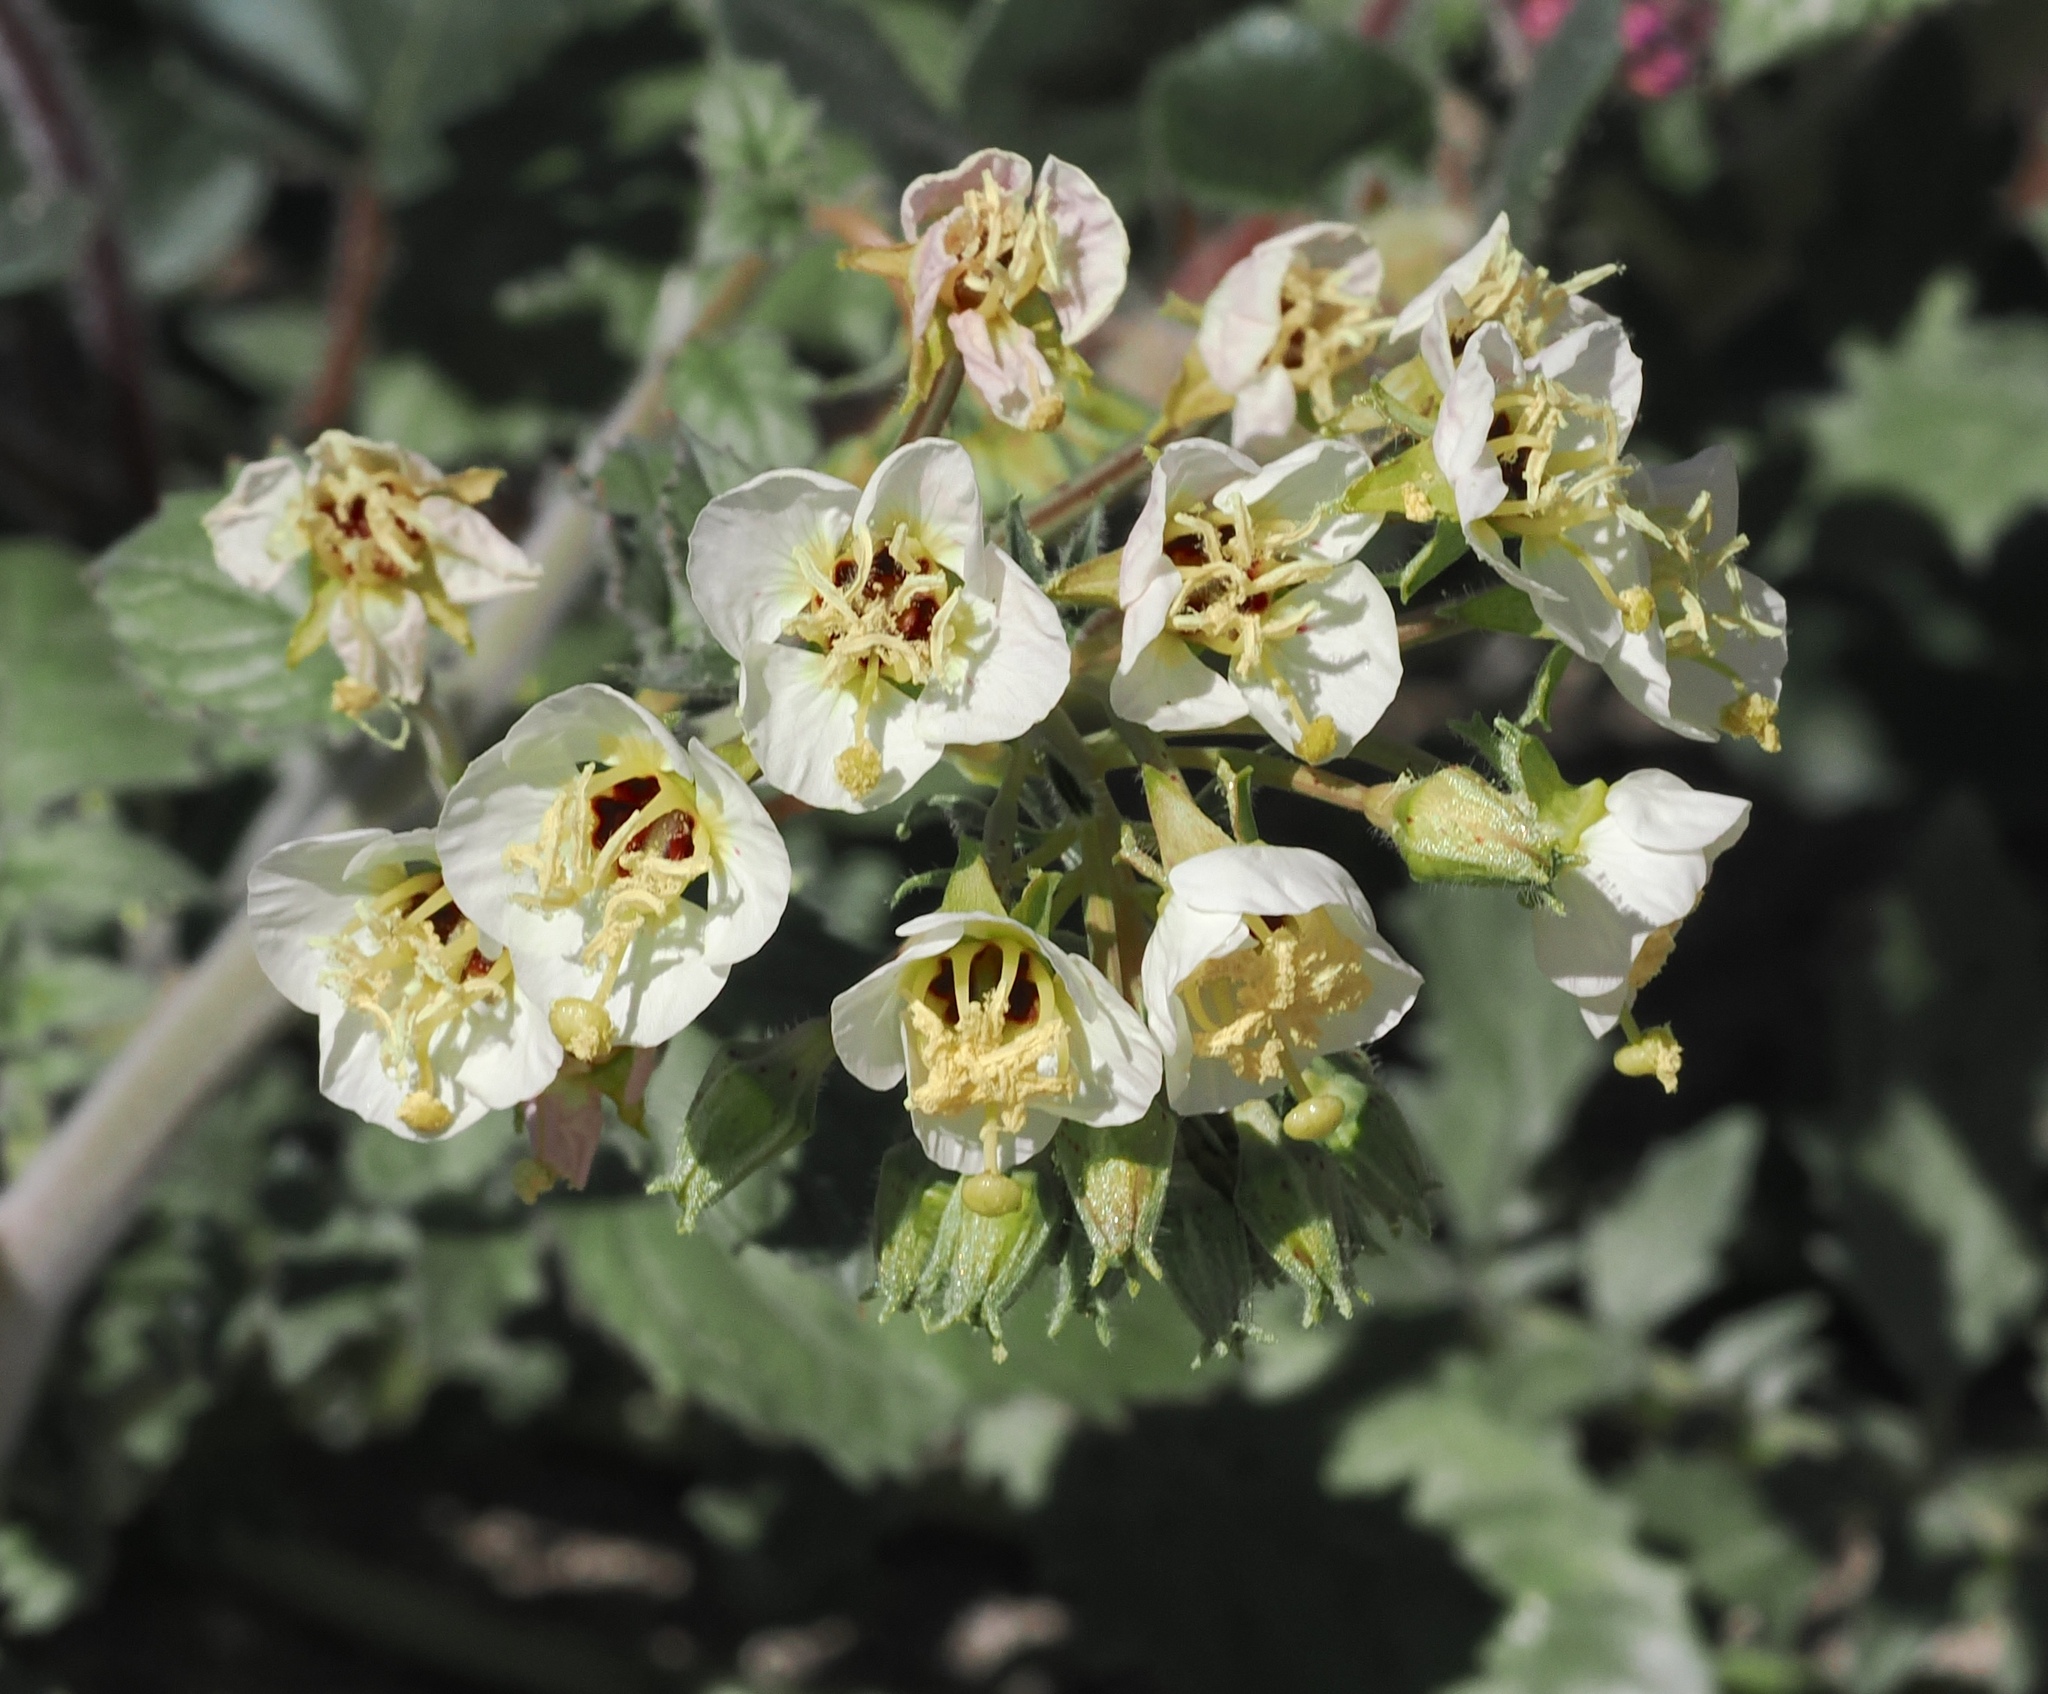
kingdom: Plantae
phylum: Tracheophyta
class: Magnoliopsida
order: Myrtales
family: Onagraceae
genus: Chylismia
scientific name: Chylismia claviformis
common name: Browneyes
